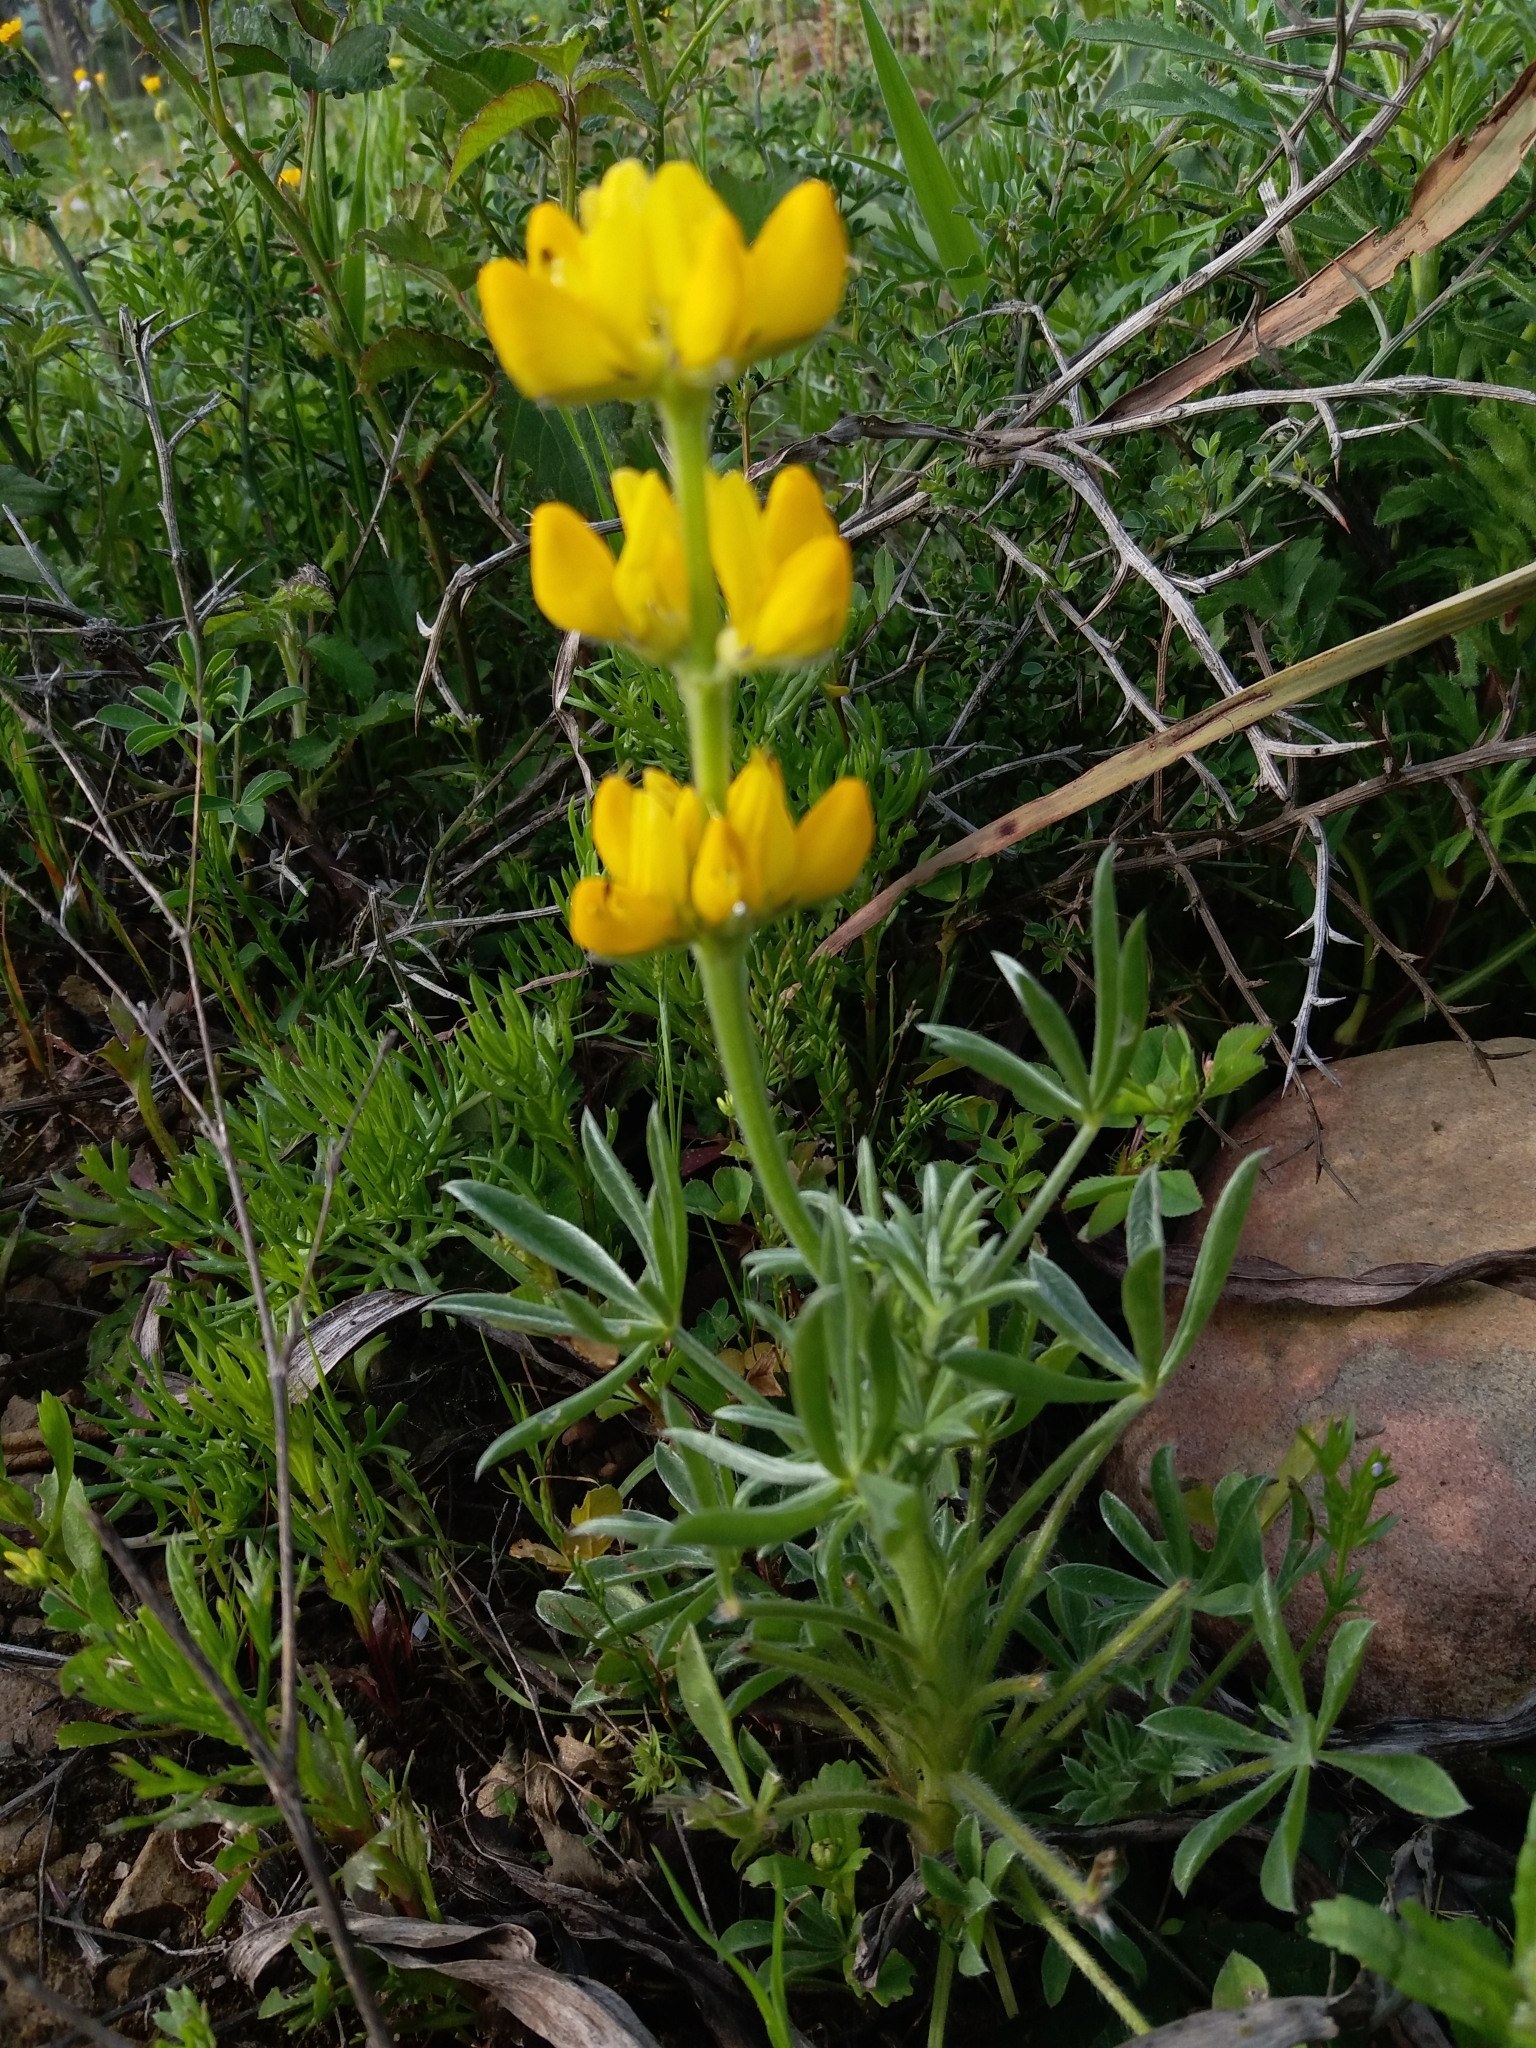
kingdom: Plantae
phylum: Tracheophyta
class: Magnoliopsida
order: Fabales
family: Fabaceae
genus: Lupinus
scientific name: Lupinus luteus
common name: European yellow lupine
